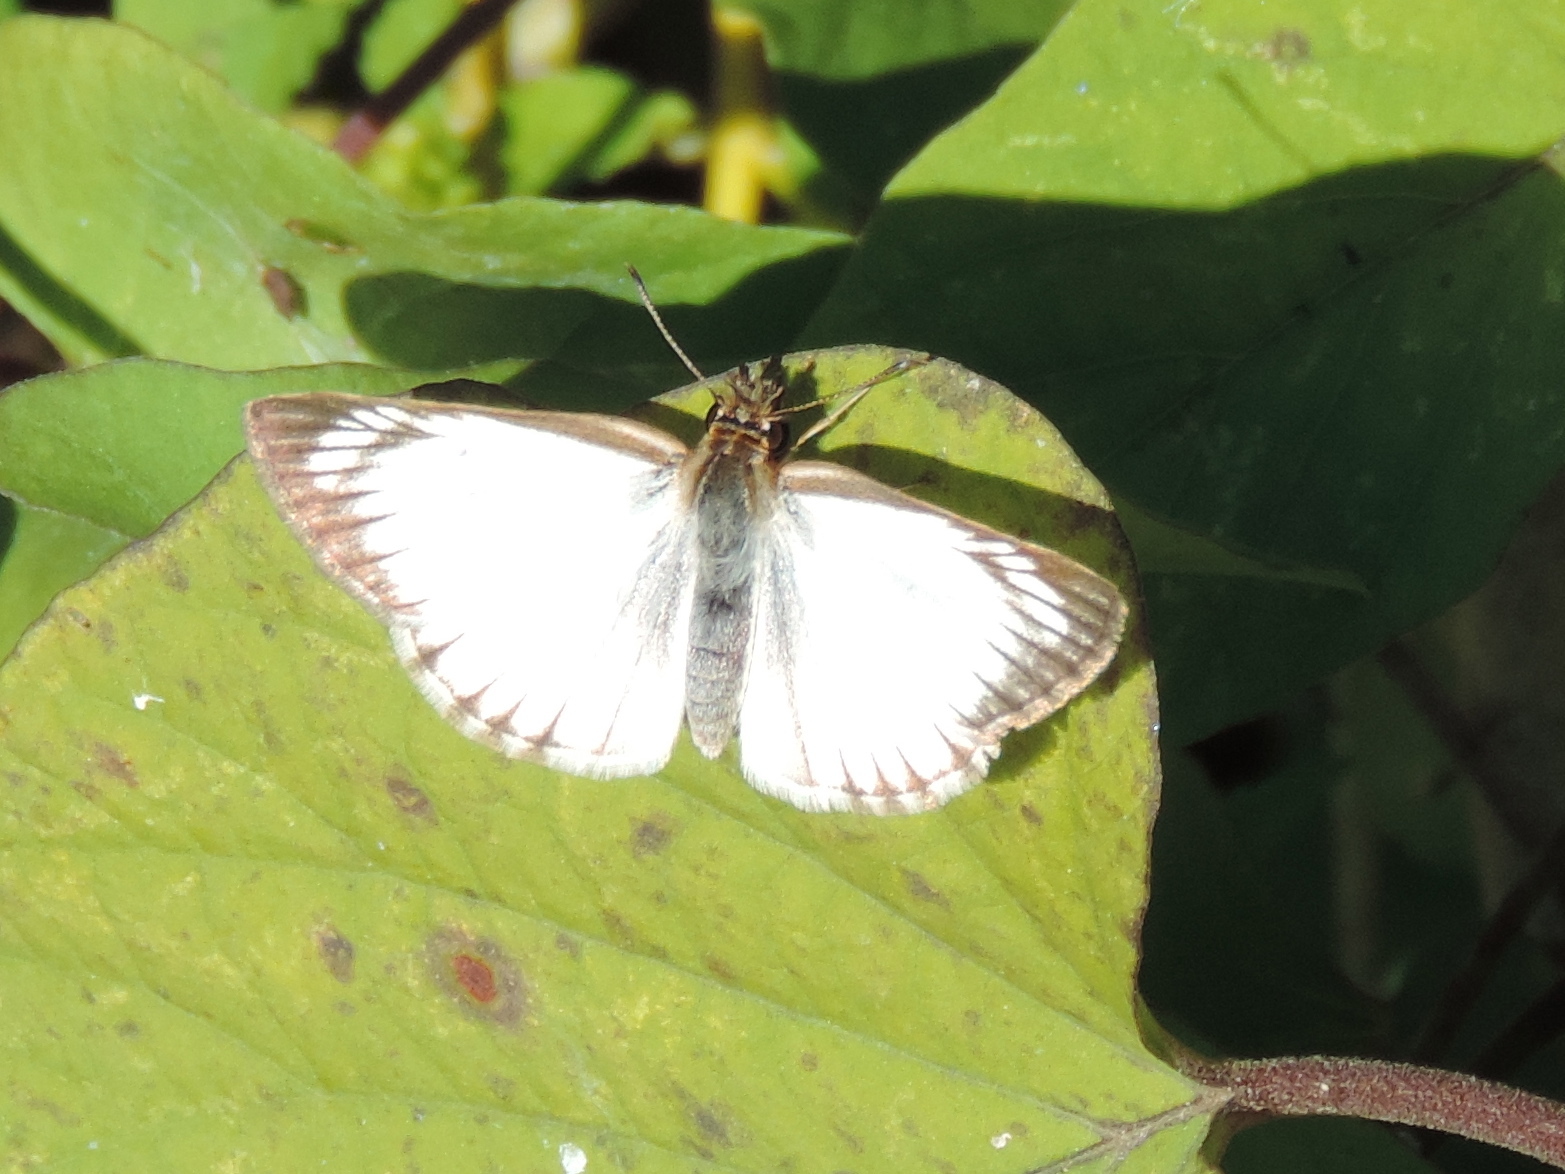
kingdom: Animalia
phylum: Arthropoda
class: Insecta
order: Lepidoptera
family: Hesperiidae
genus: Heliopetes
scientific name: Heliopetes arsalte
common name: Veined white-skipper
